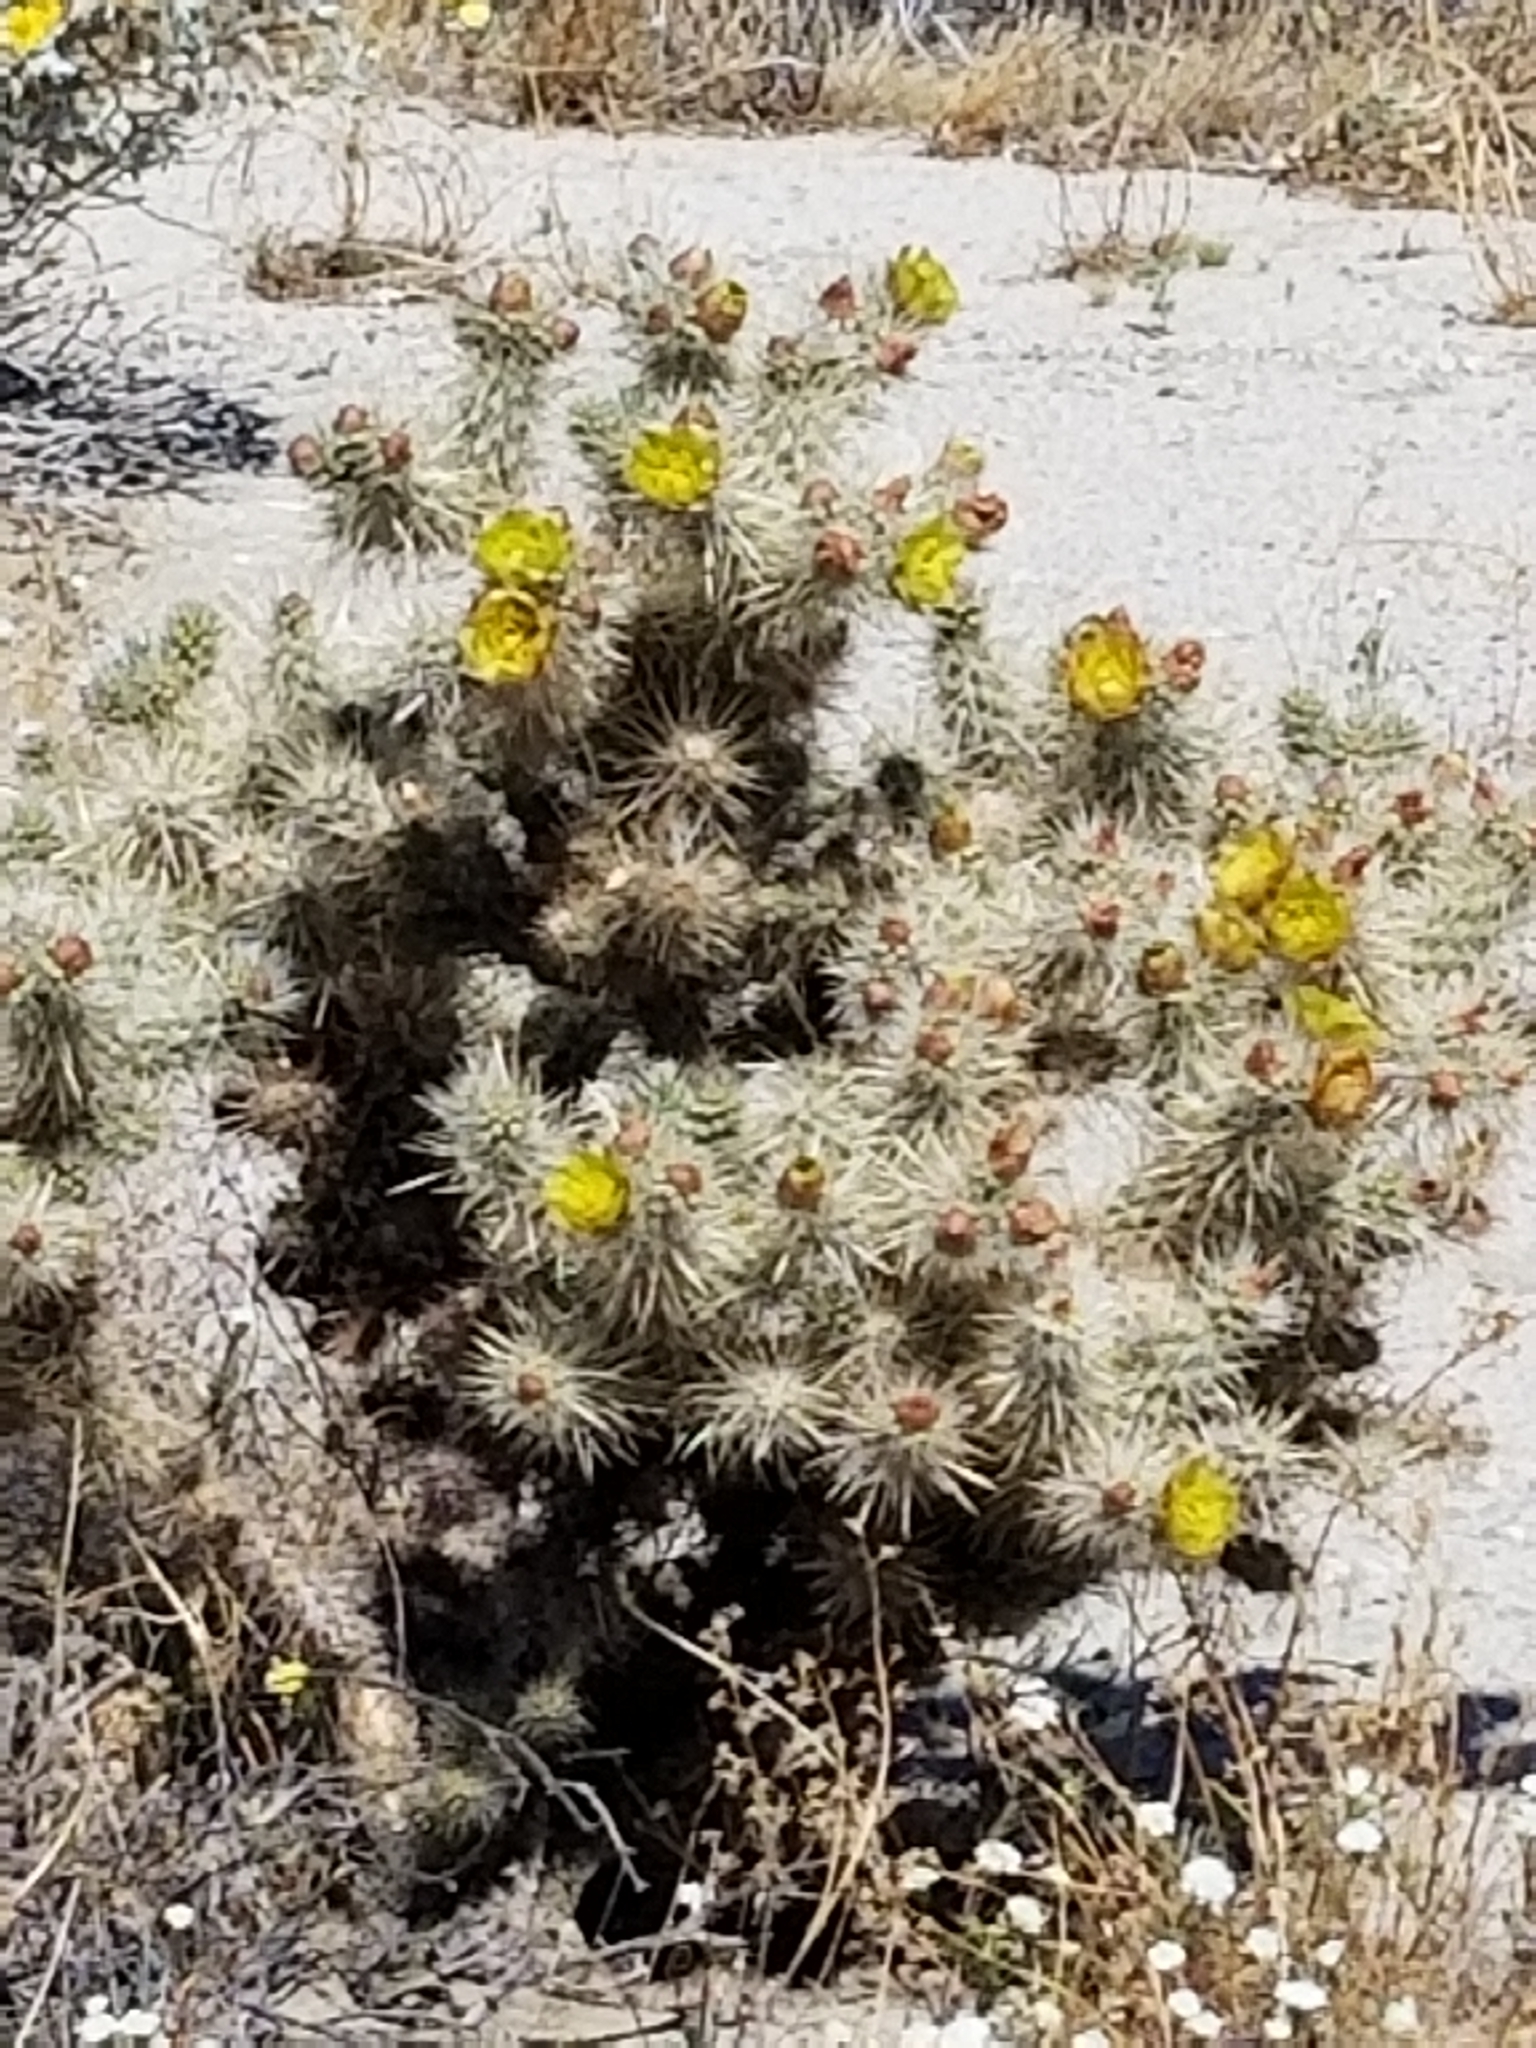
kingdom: Plantae
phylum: Tracheophyta
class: Magnoliopsida
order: Caryophyllales
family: Cactaceae
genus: Cylindropuntia
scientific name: Cylindropuntia echinocarpa
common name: Ground cholla
